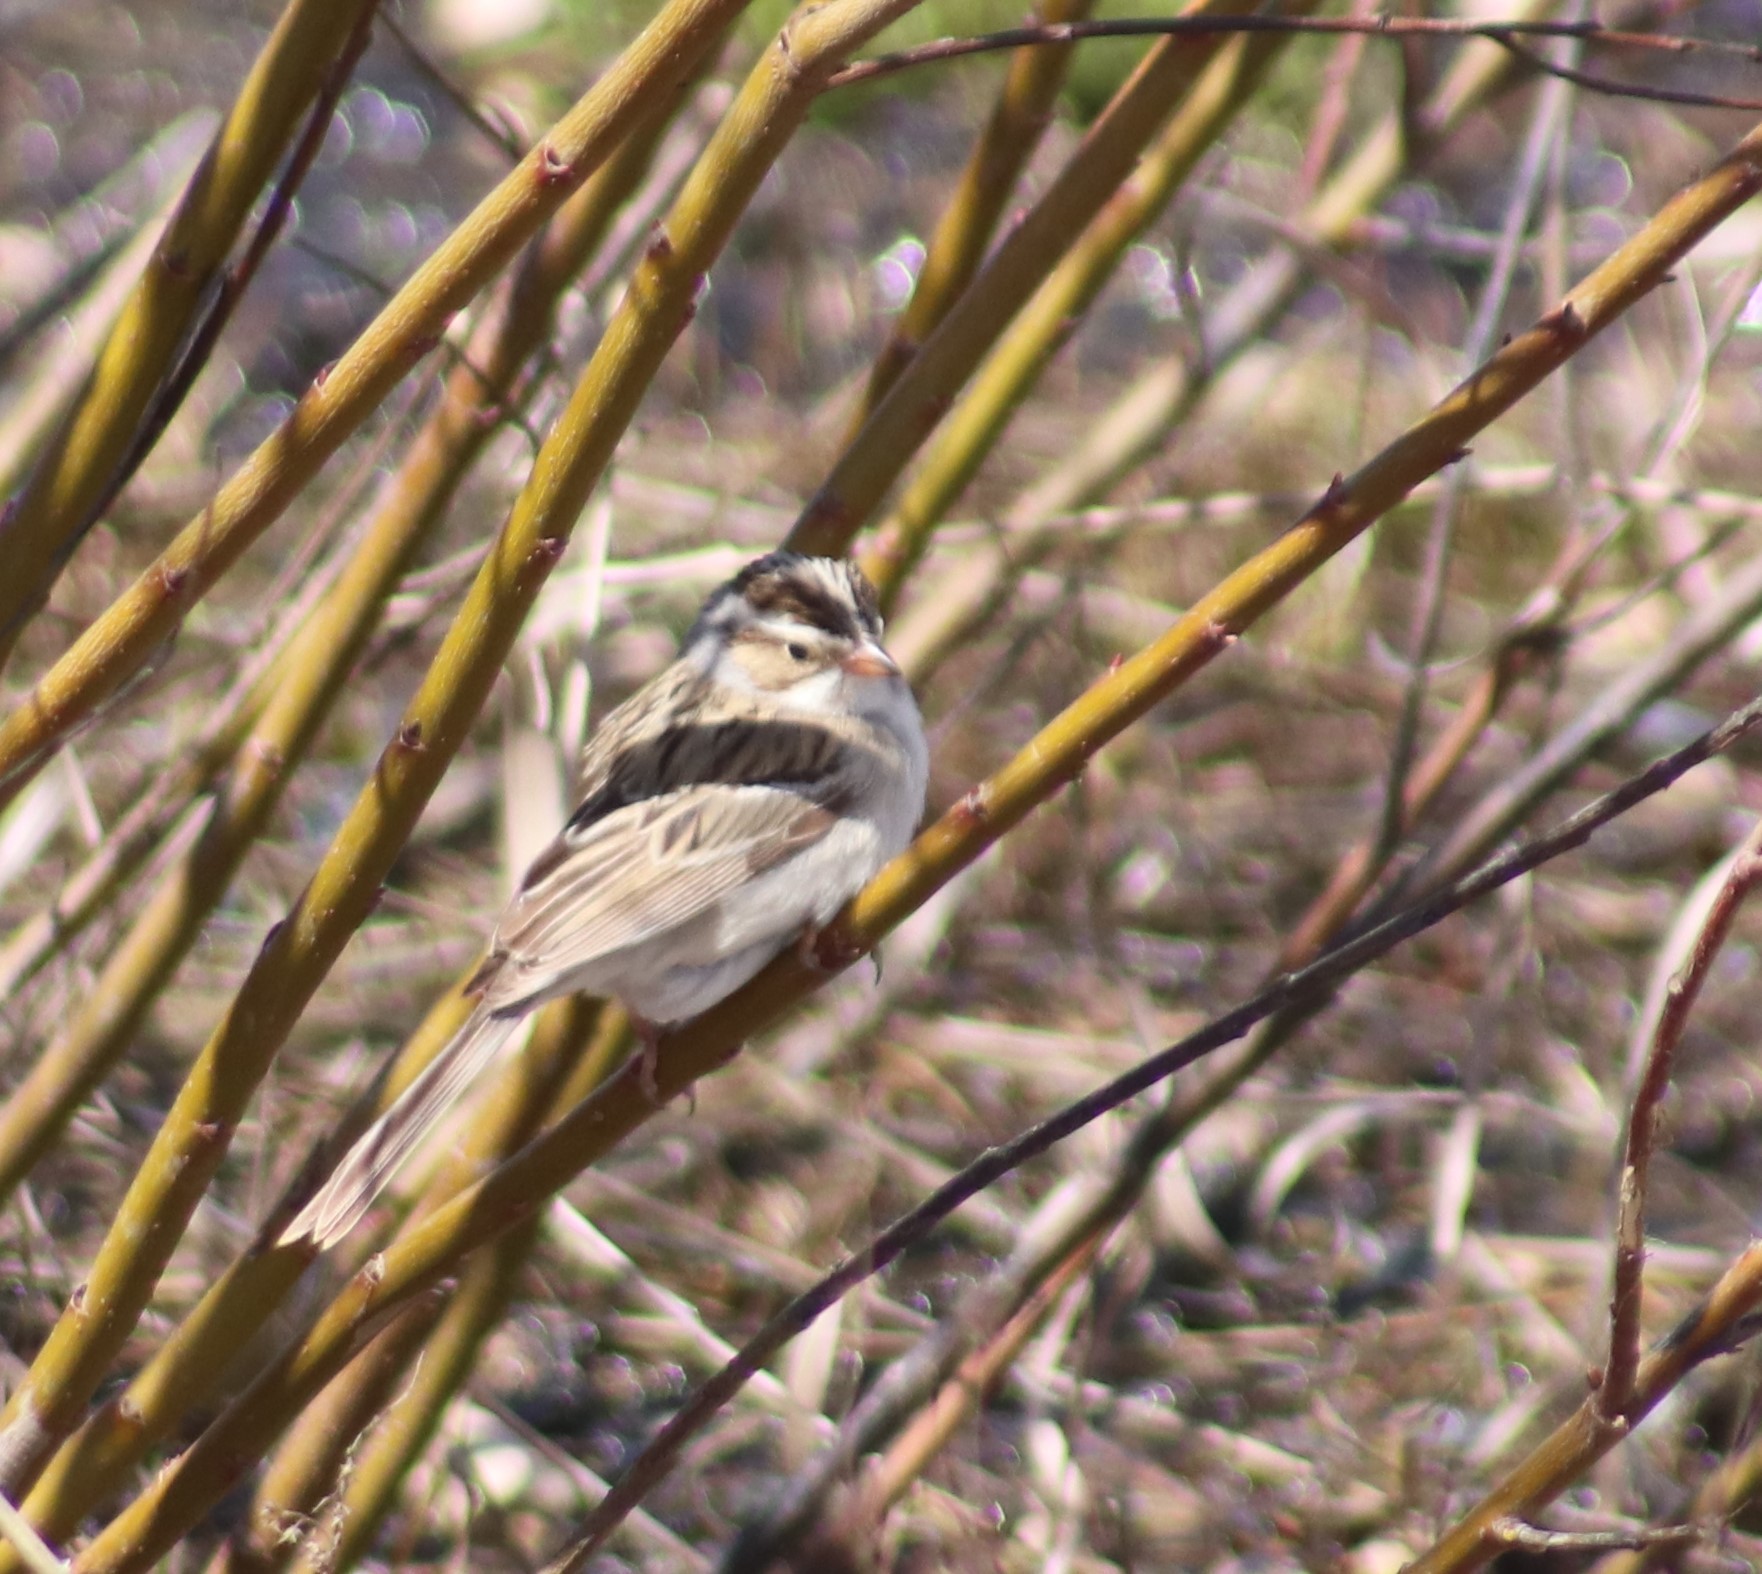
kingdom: Animalia
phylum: Chordata
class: Aves
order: Passeriformes
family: Passerellidae
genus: Spizella
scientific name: Spizella pallida
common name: Clay-colored sparrow
